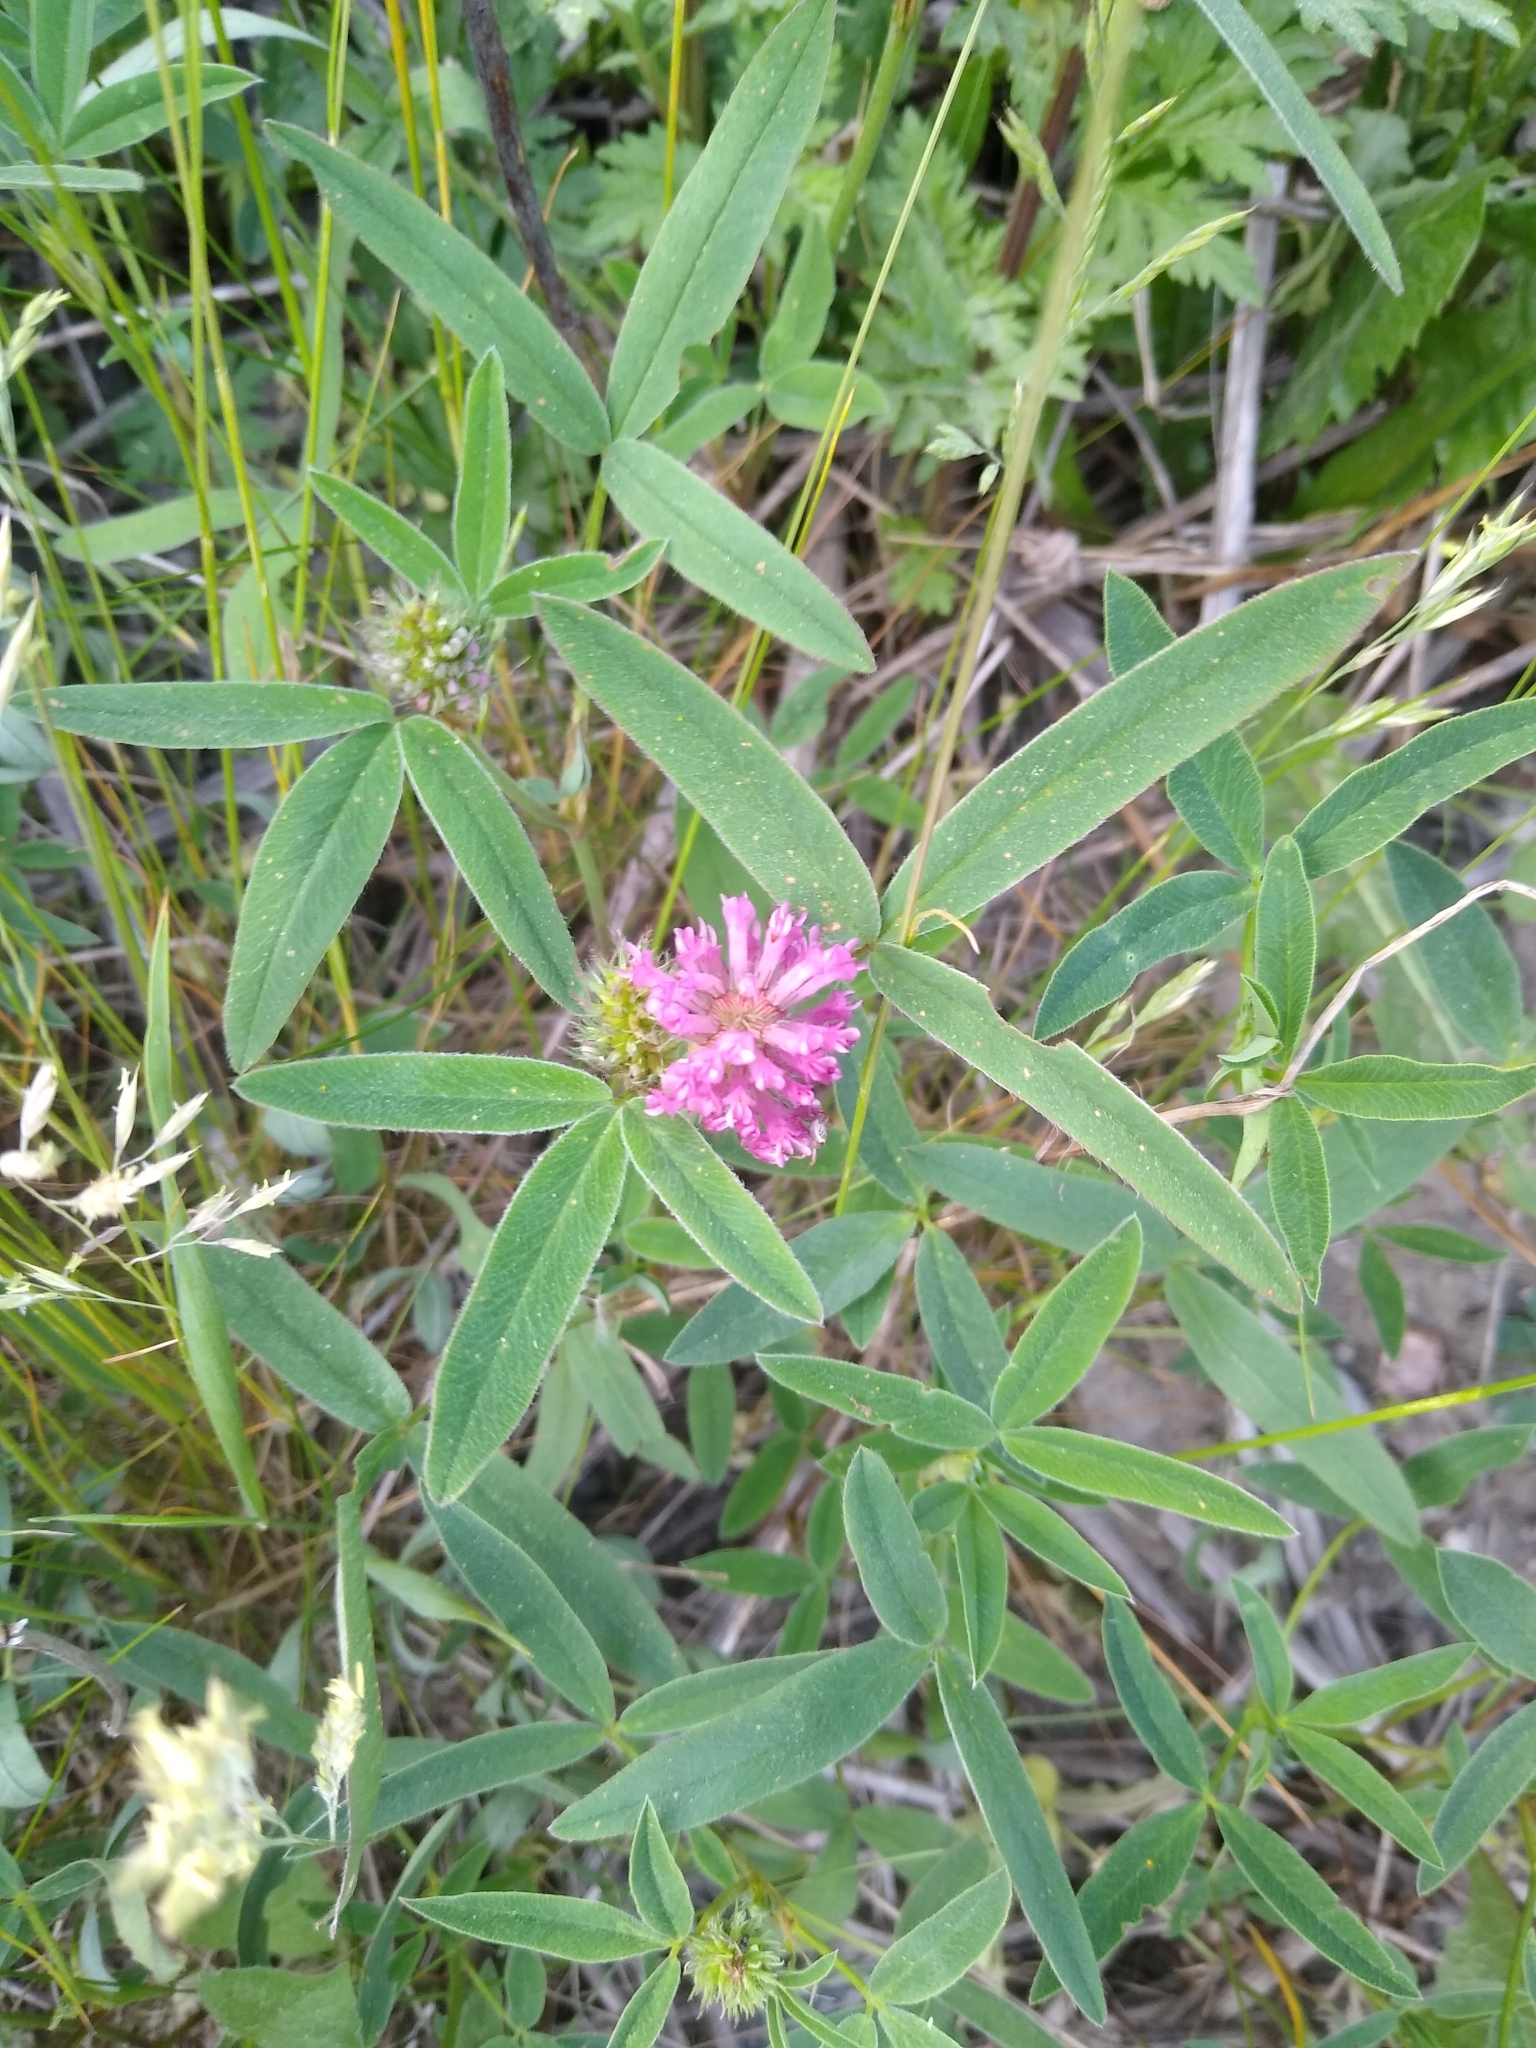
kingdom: Plantae
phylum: Tracheophyta
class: Magnoliopsida
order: Fabales
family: Fabaceae
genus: Trifolium
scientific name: Trifolium medium
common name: Zigzag clover
